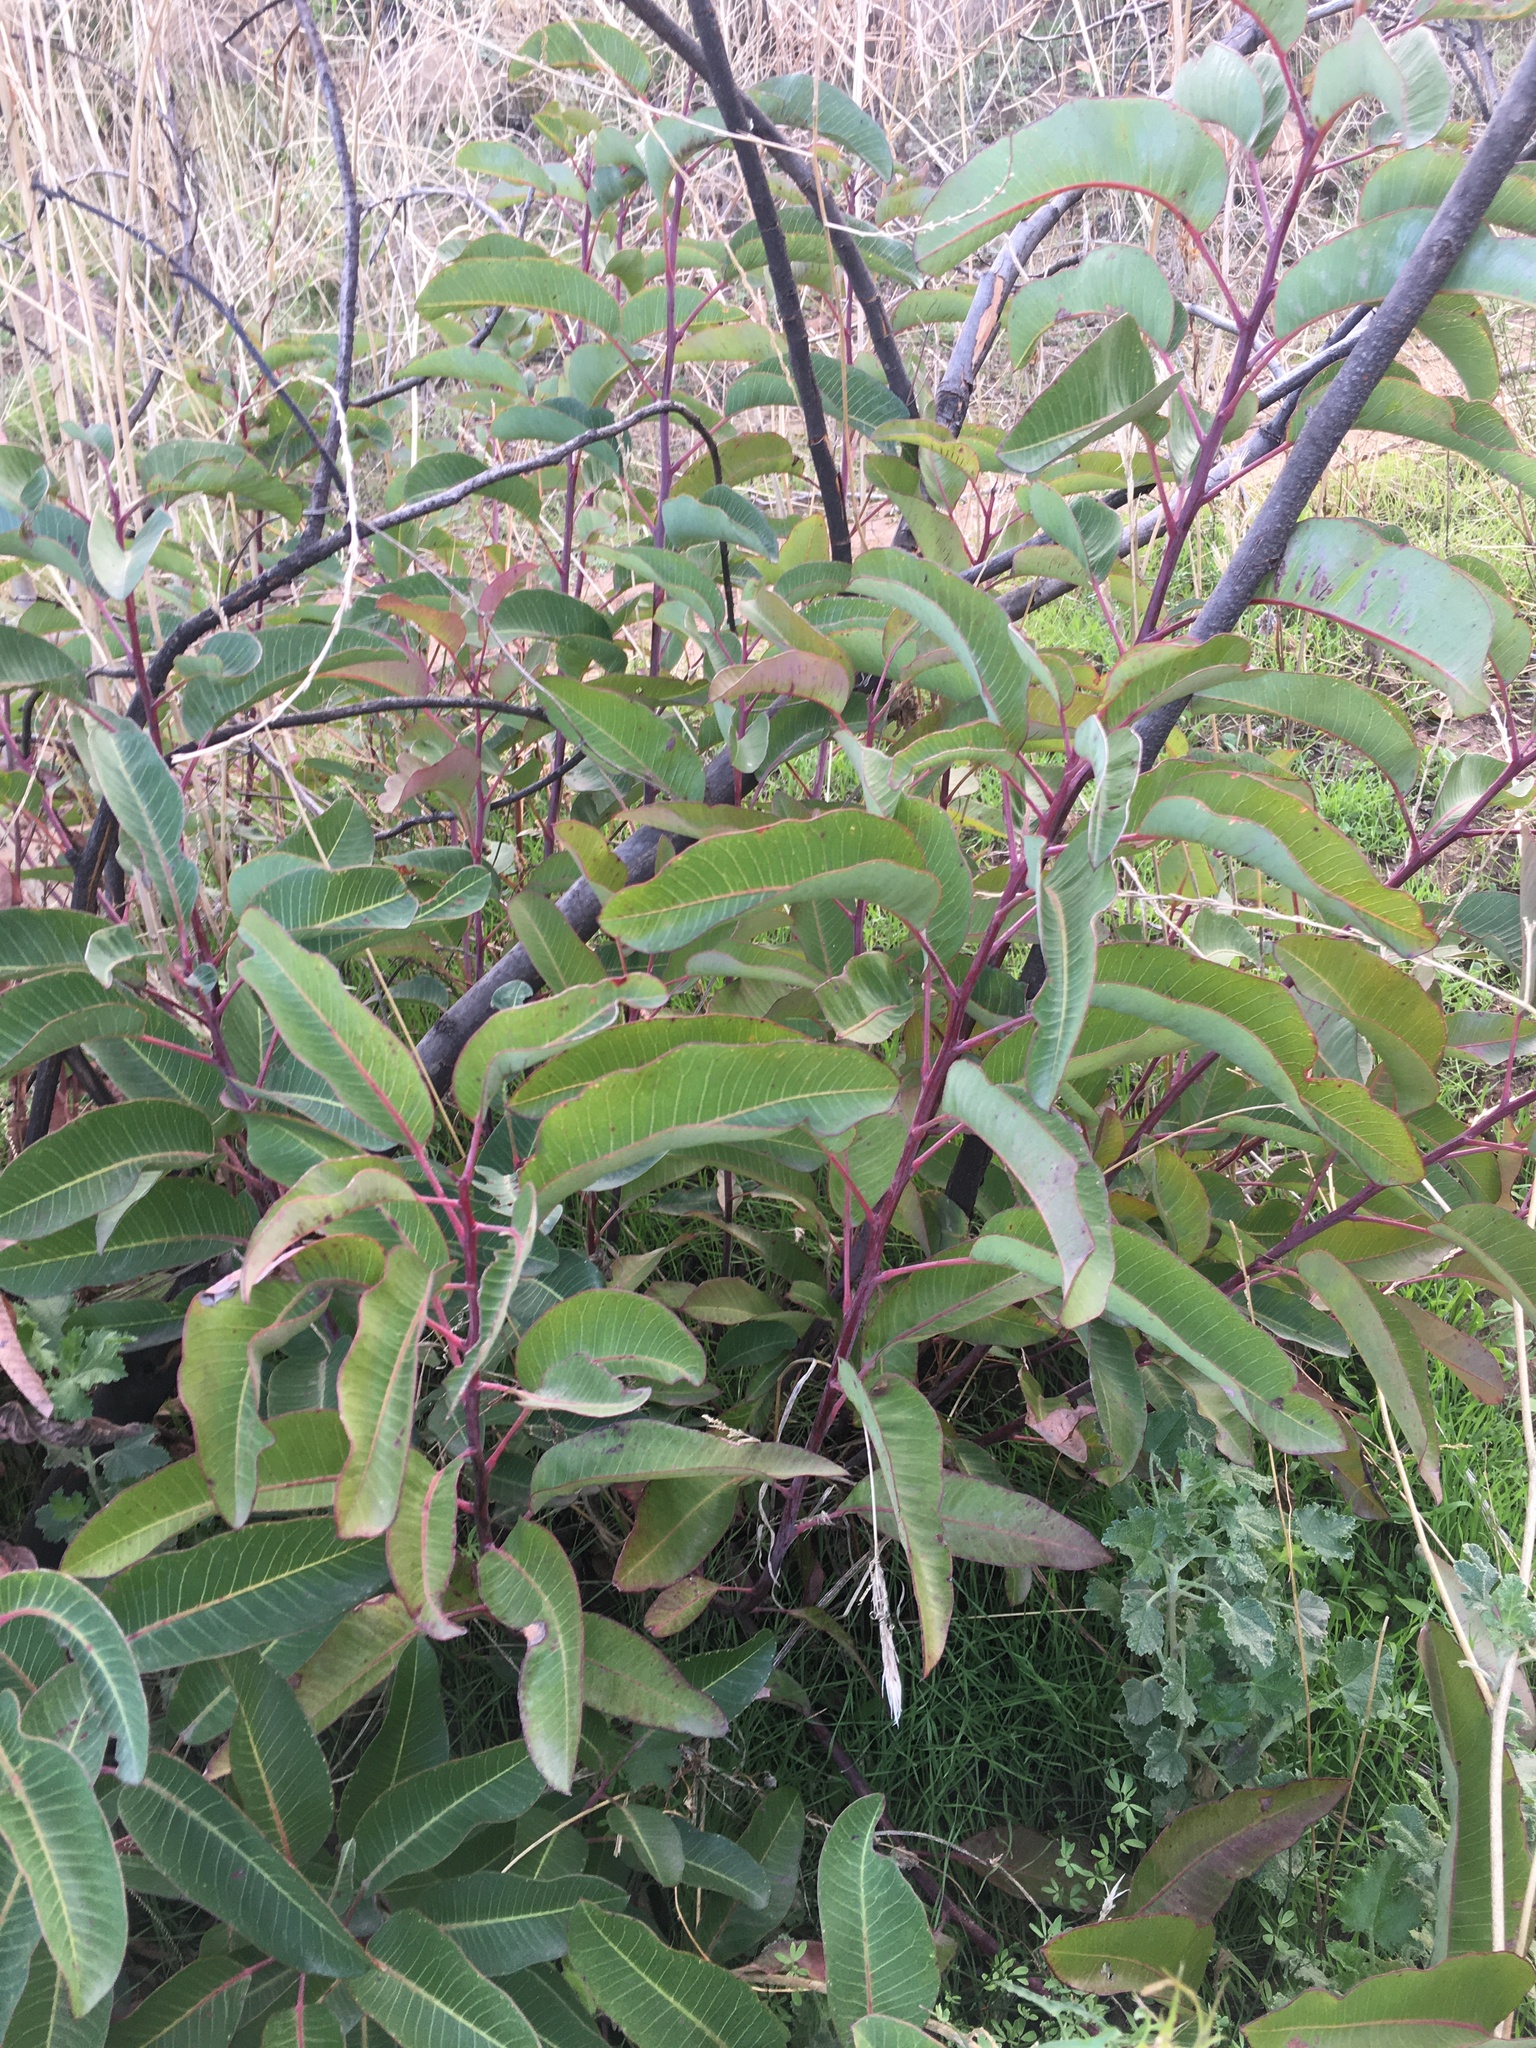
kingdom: Plantae
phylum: Tracheophyta
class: Magnoliopsida
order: Sapindales
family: Anacardiaceae
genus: Malosma
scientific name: Malosma laurina
